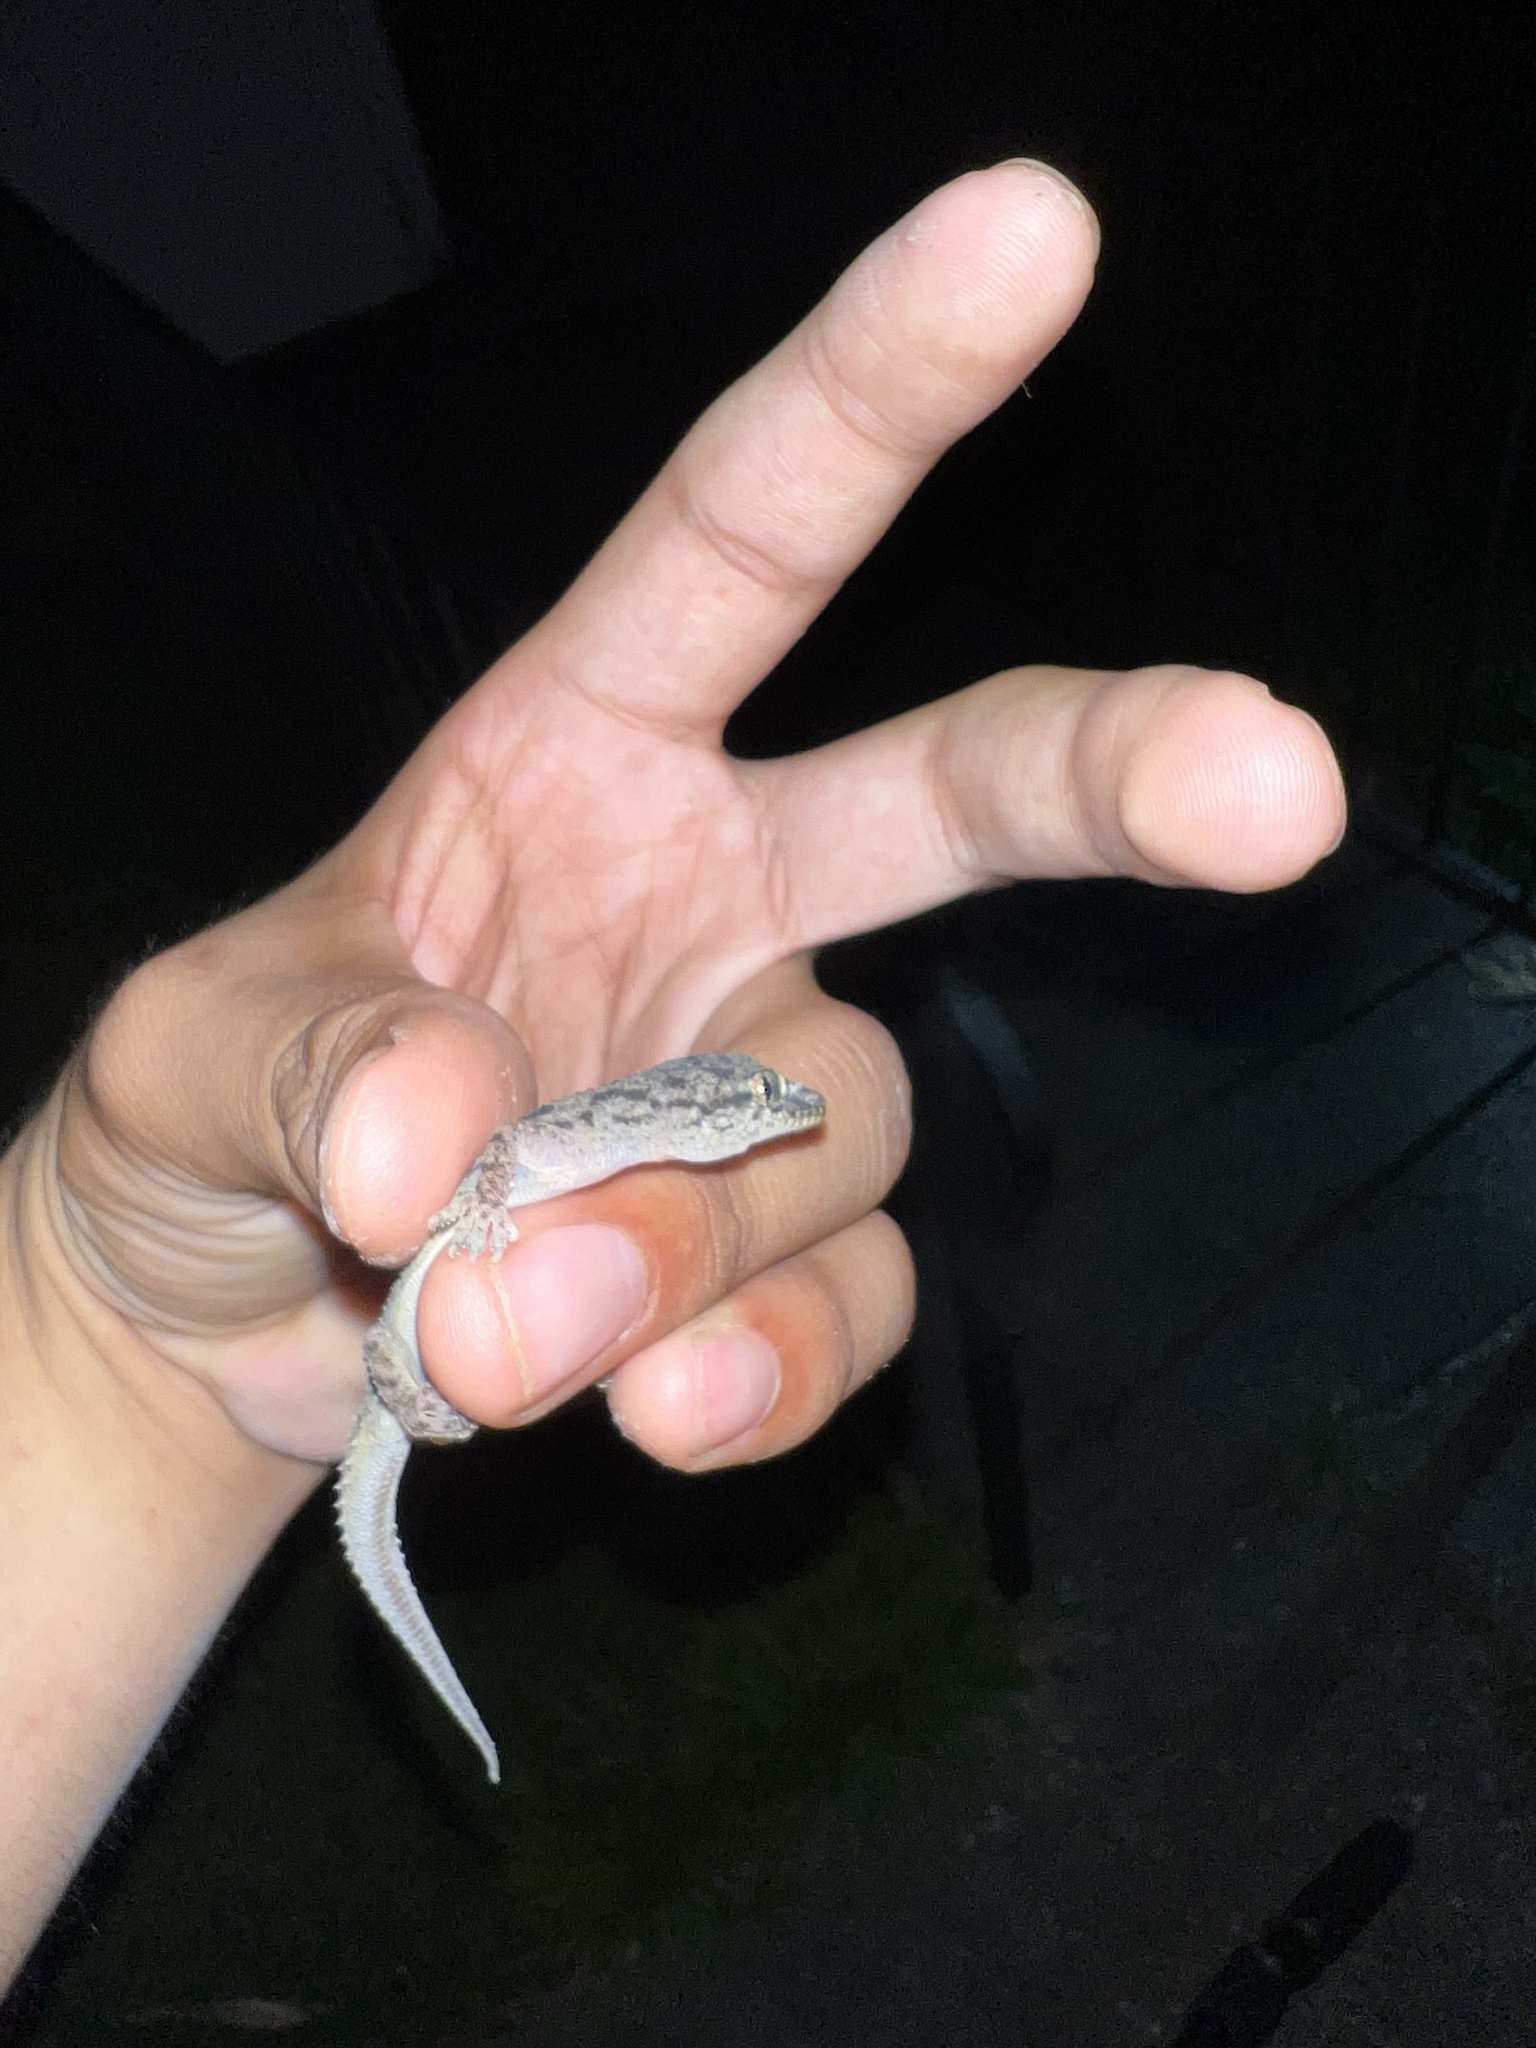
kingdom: Animalia
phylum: Chordata
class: Squamata
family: Gekkonidae
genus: Hemidactylus
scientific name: Hemidactylus parvimaculatus
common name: Spotted house gecko
